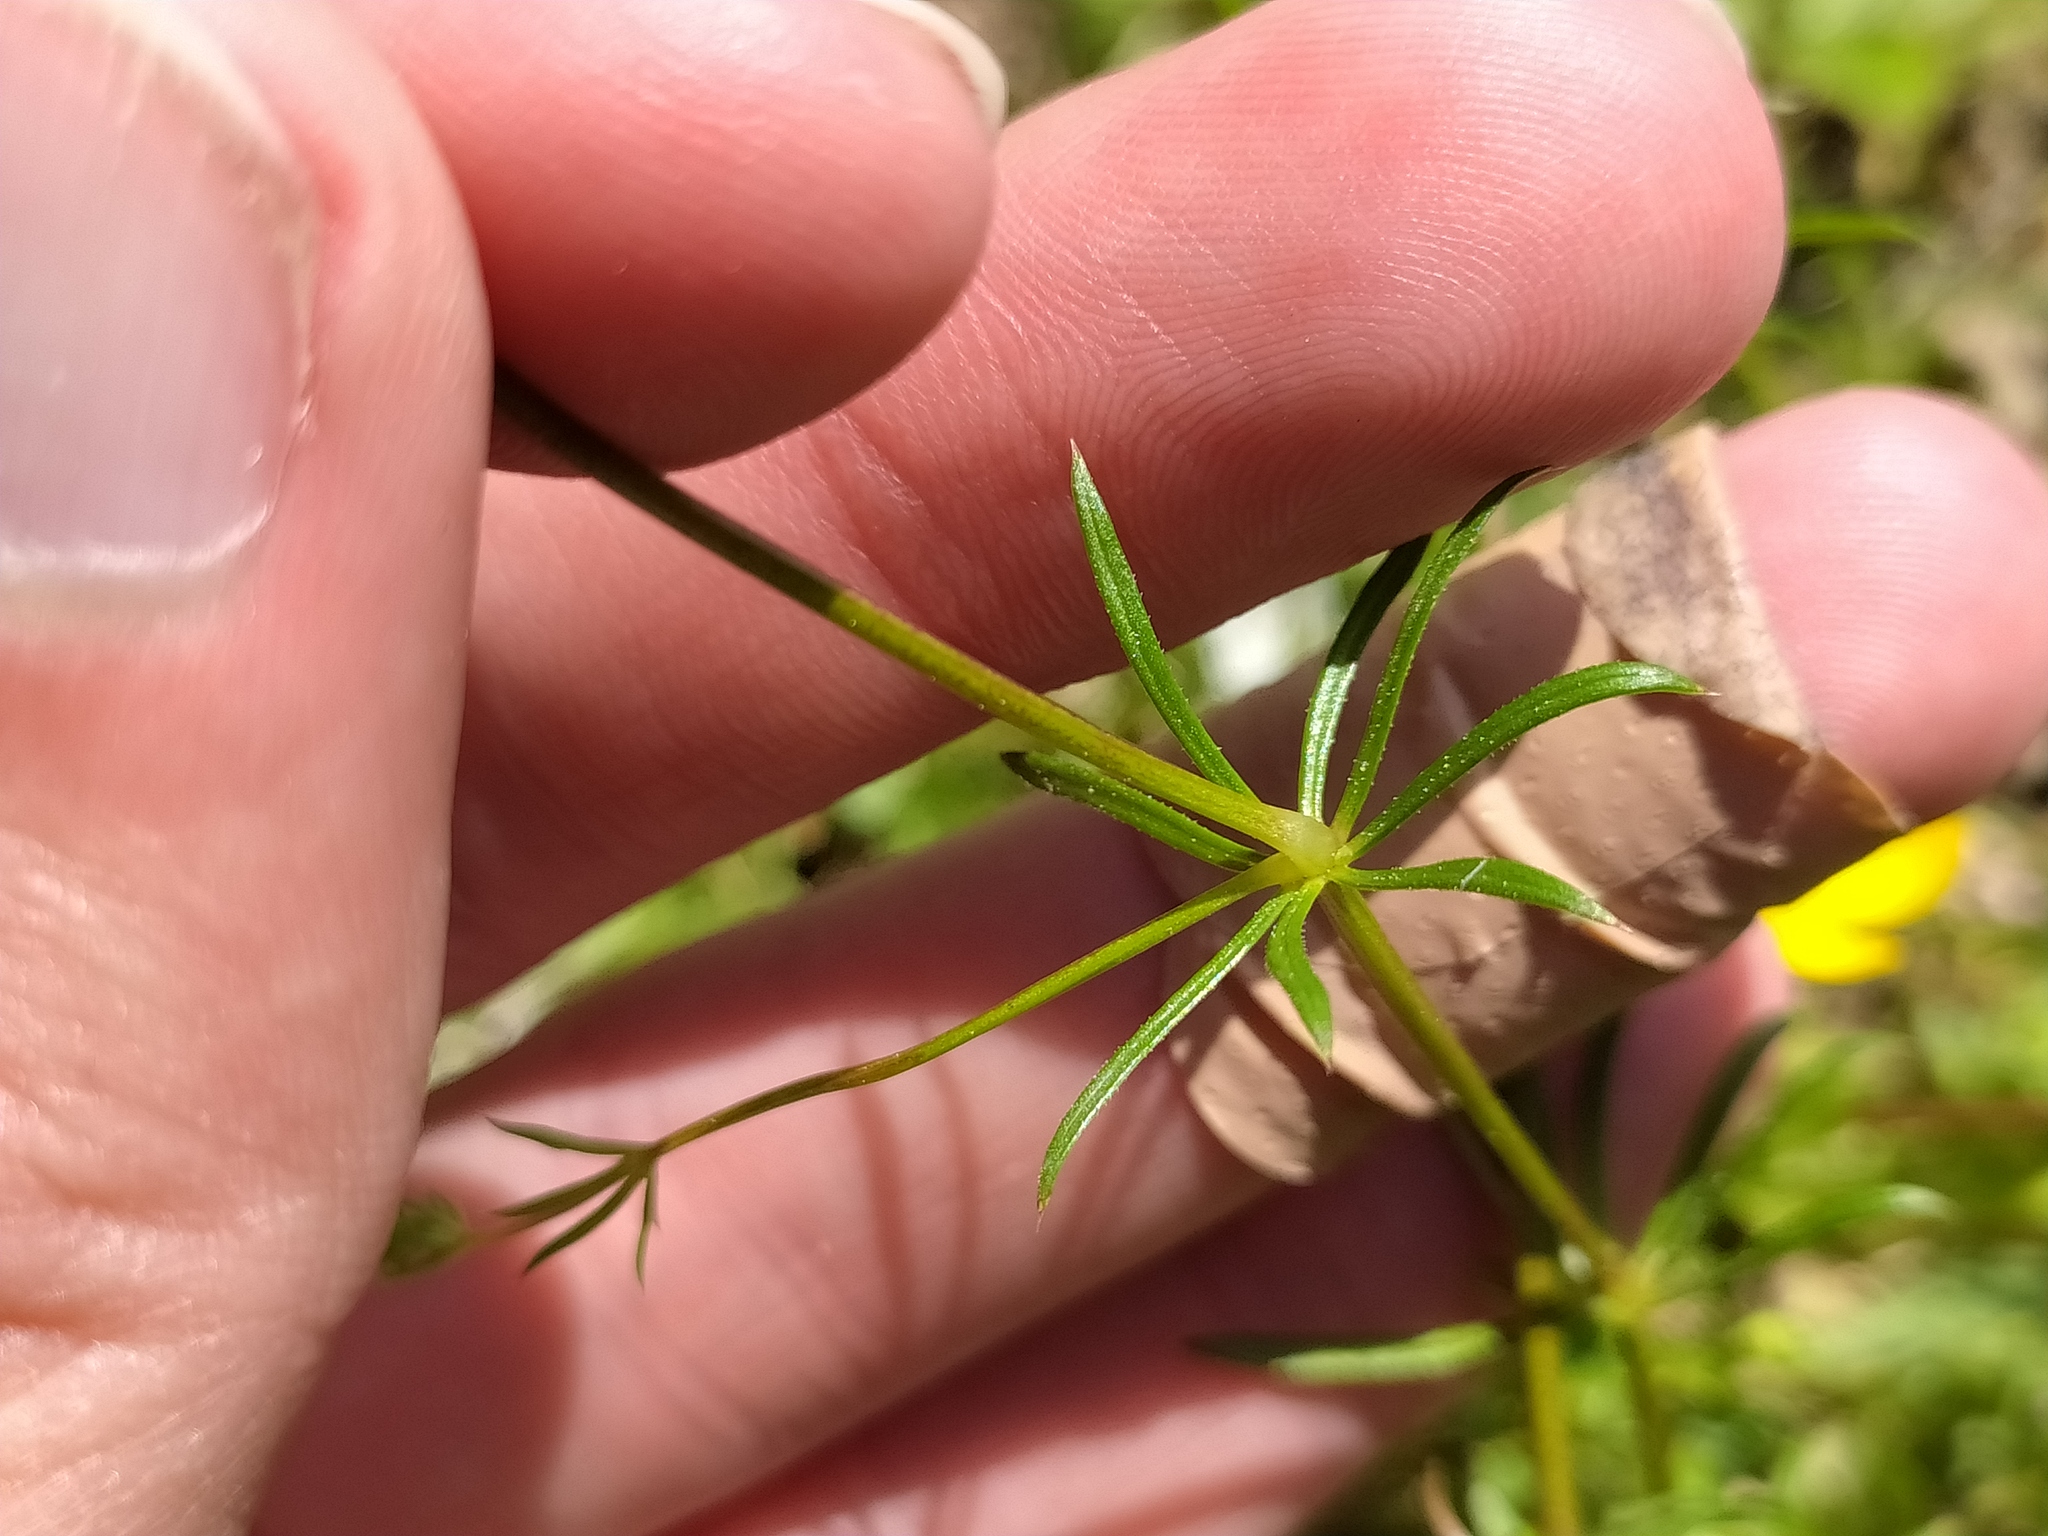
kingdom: Plantae
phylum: Tracheophyta
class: Magnoliopsida
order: Gentianales
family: Rubiaceae
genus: Galium
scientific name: Galium pumilum
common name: Slender bedstraw
